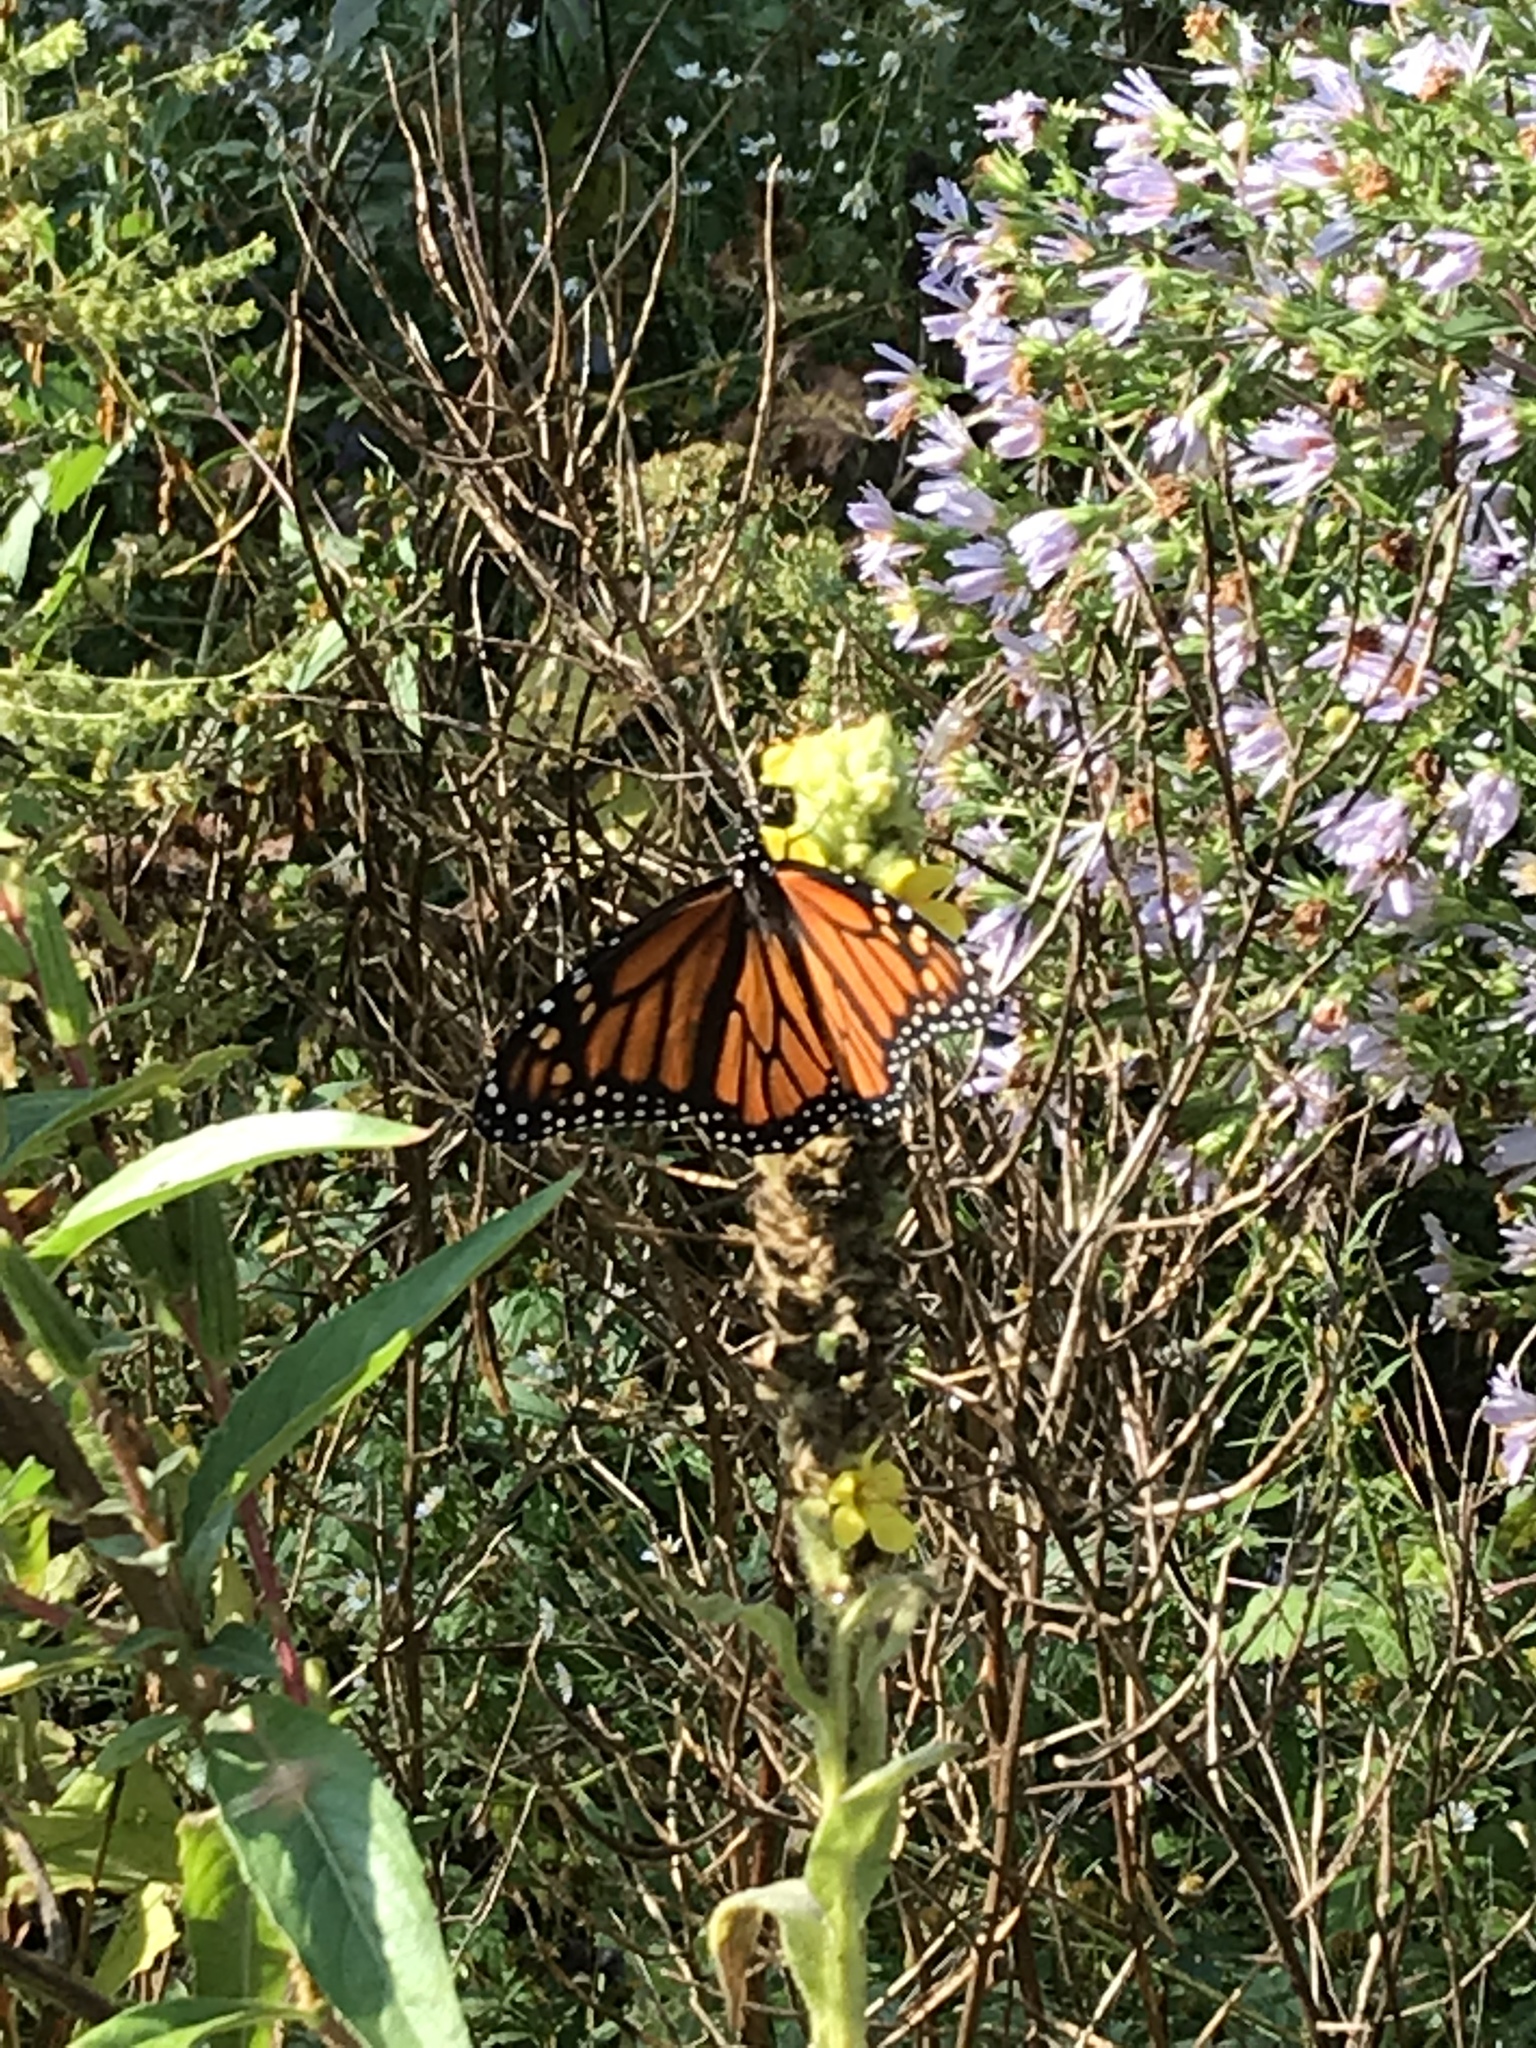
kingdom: Animalia
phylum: Arthropoda
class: Insecta
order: Lepidoptera
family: Nymphalidae
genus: Danaus
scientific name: Danaus plexippus
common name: Monarch
